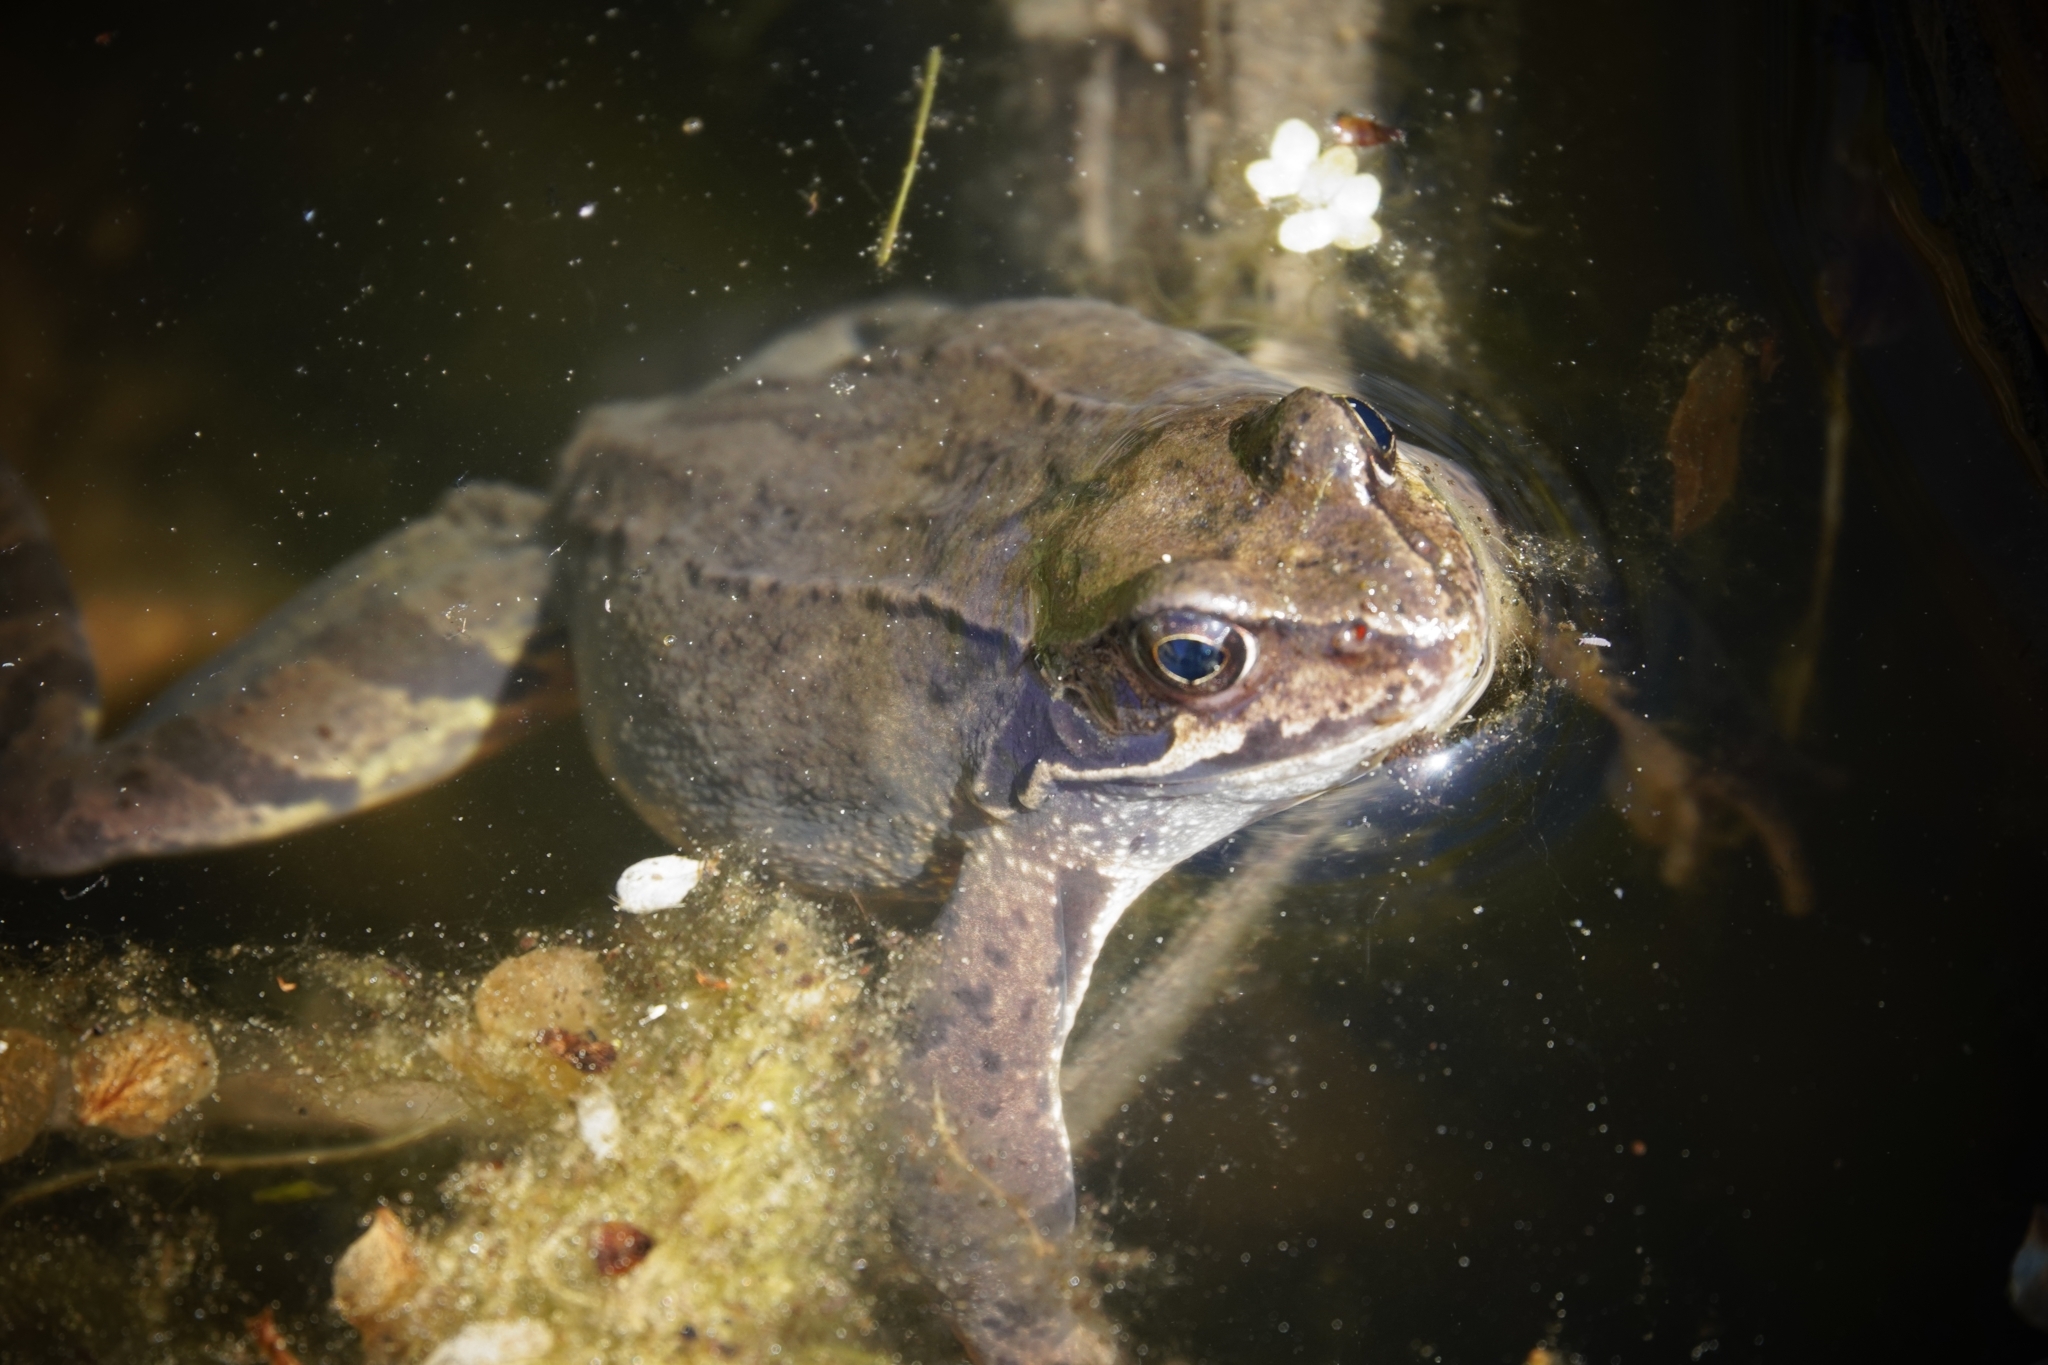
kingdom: Animalia
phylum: Chordata
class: Amphibia
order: Anura
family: Ranidae
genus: Rana
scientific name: Rana temporaria
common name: Common frog
